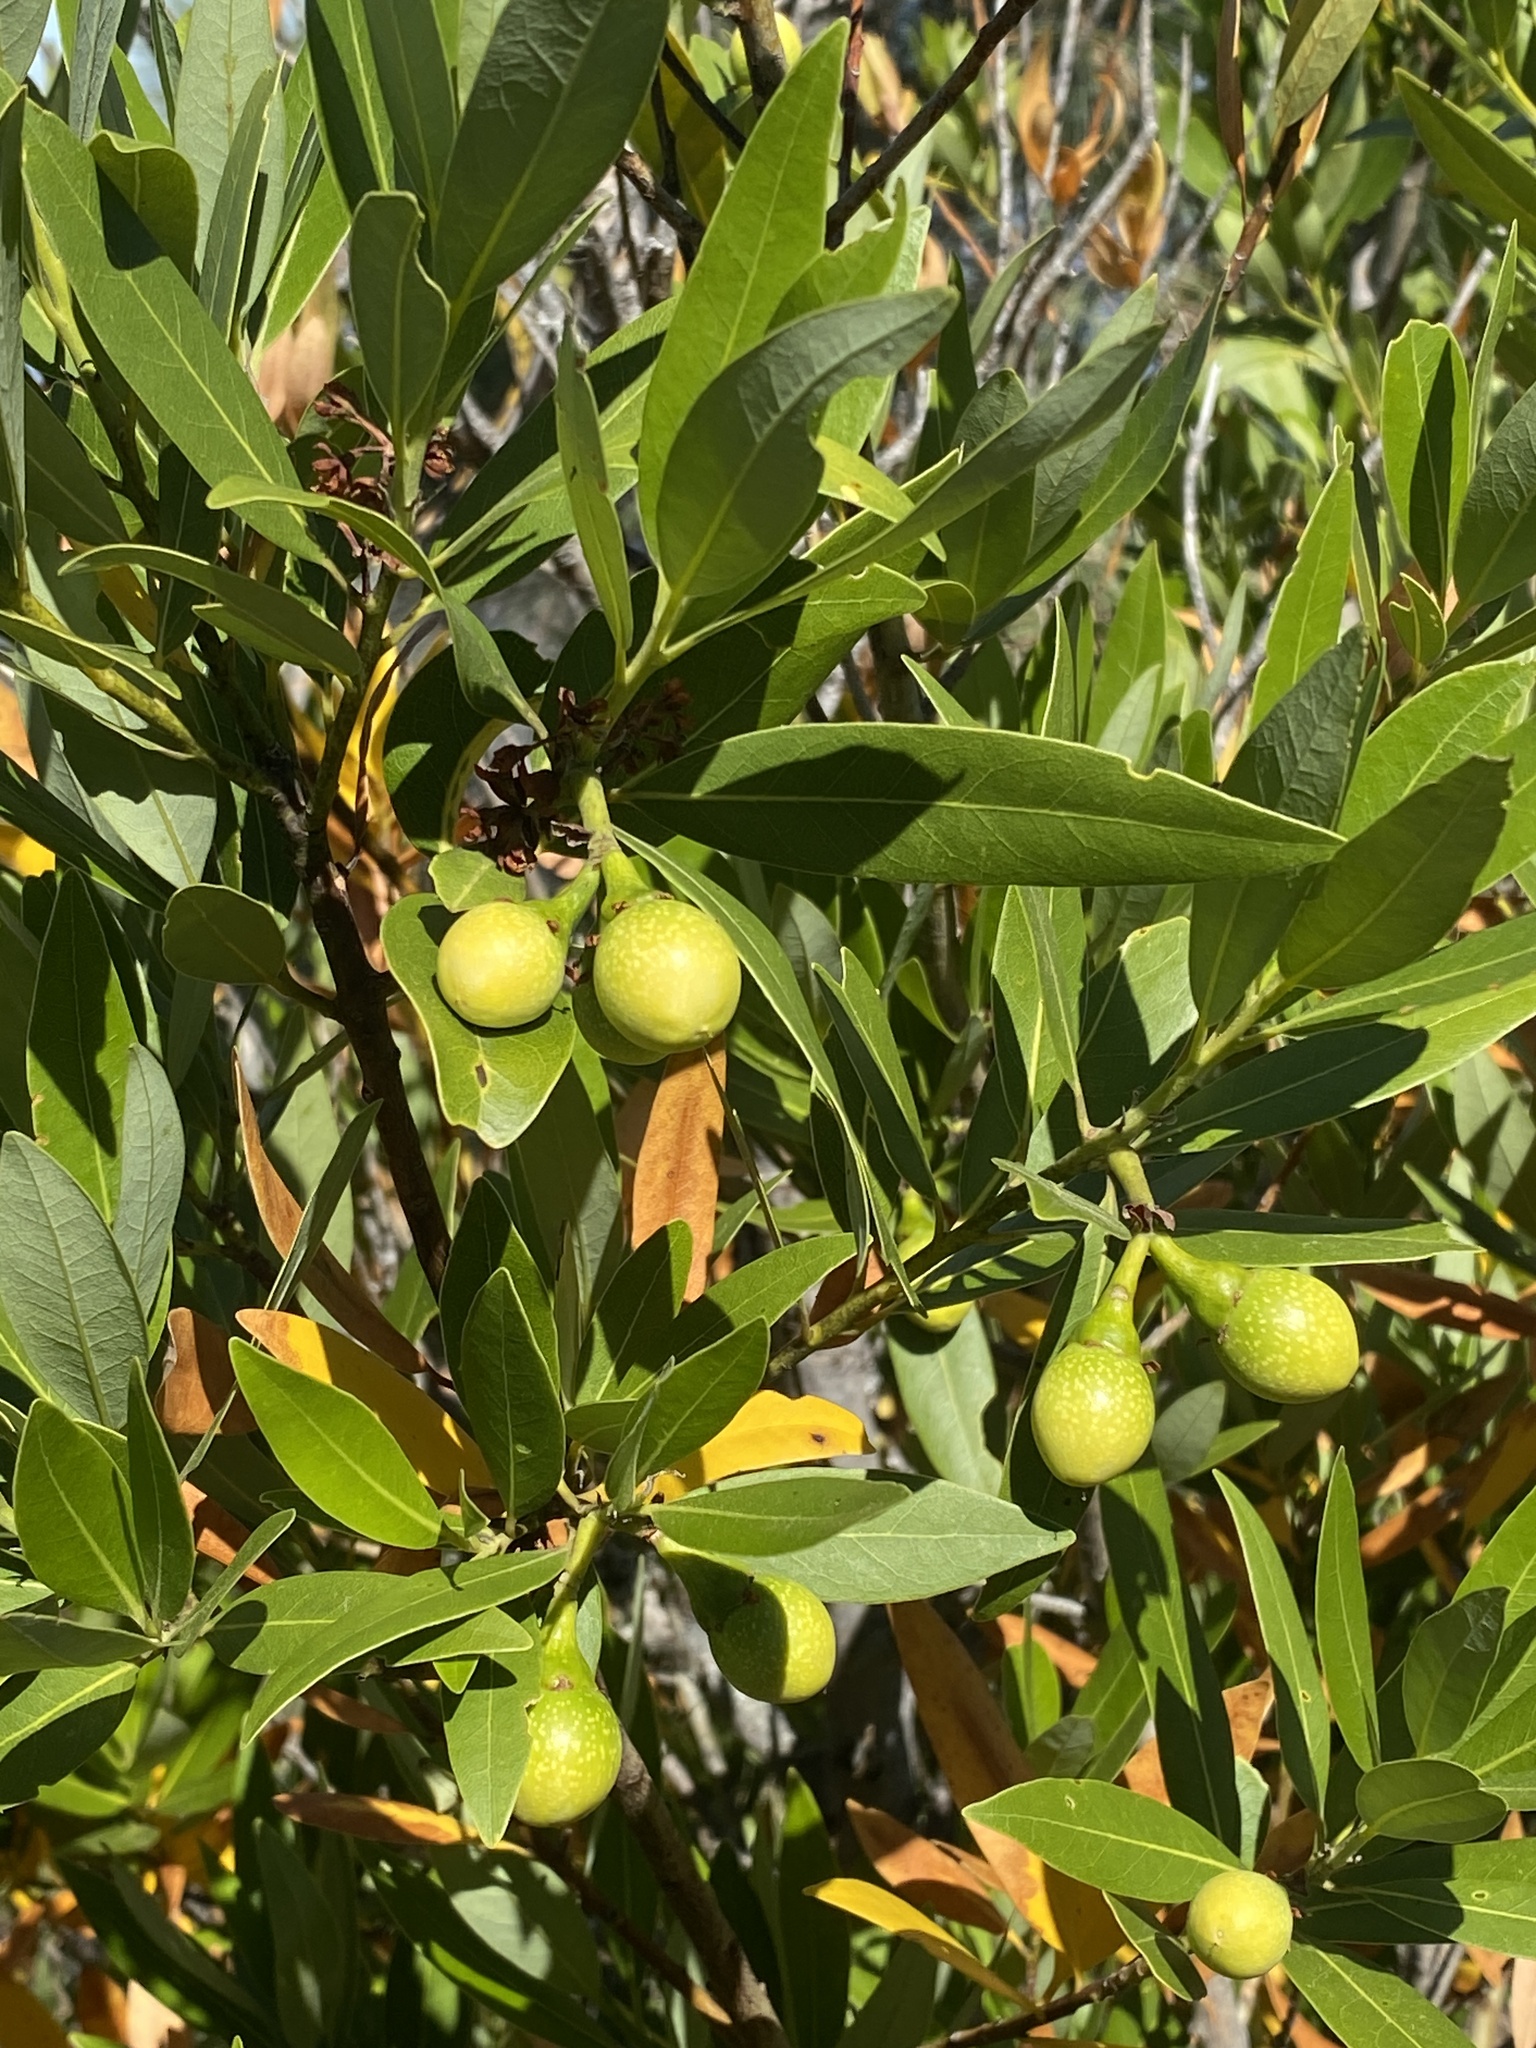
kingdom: Plantae
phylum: Tracheophyta
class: Magnoliopsida
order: Laurales
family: Lauraceae
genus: Umbellularia
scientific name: Umbellularia californica
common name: California bay
